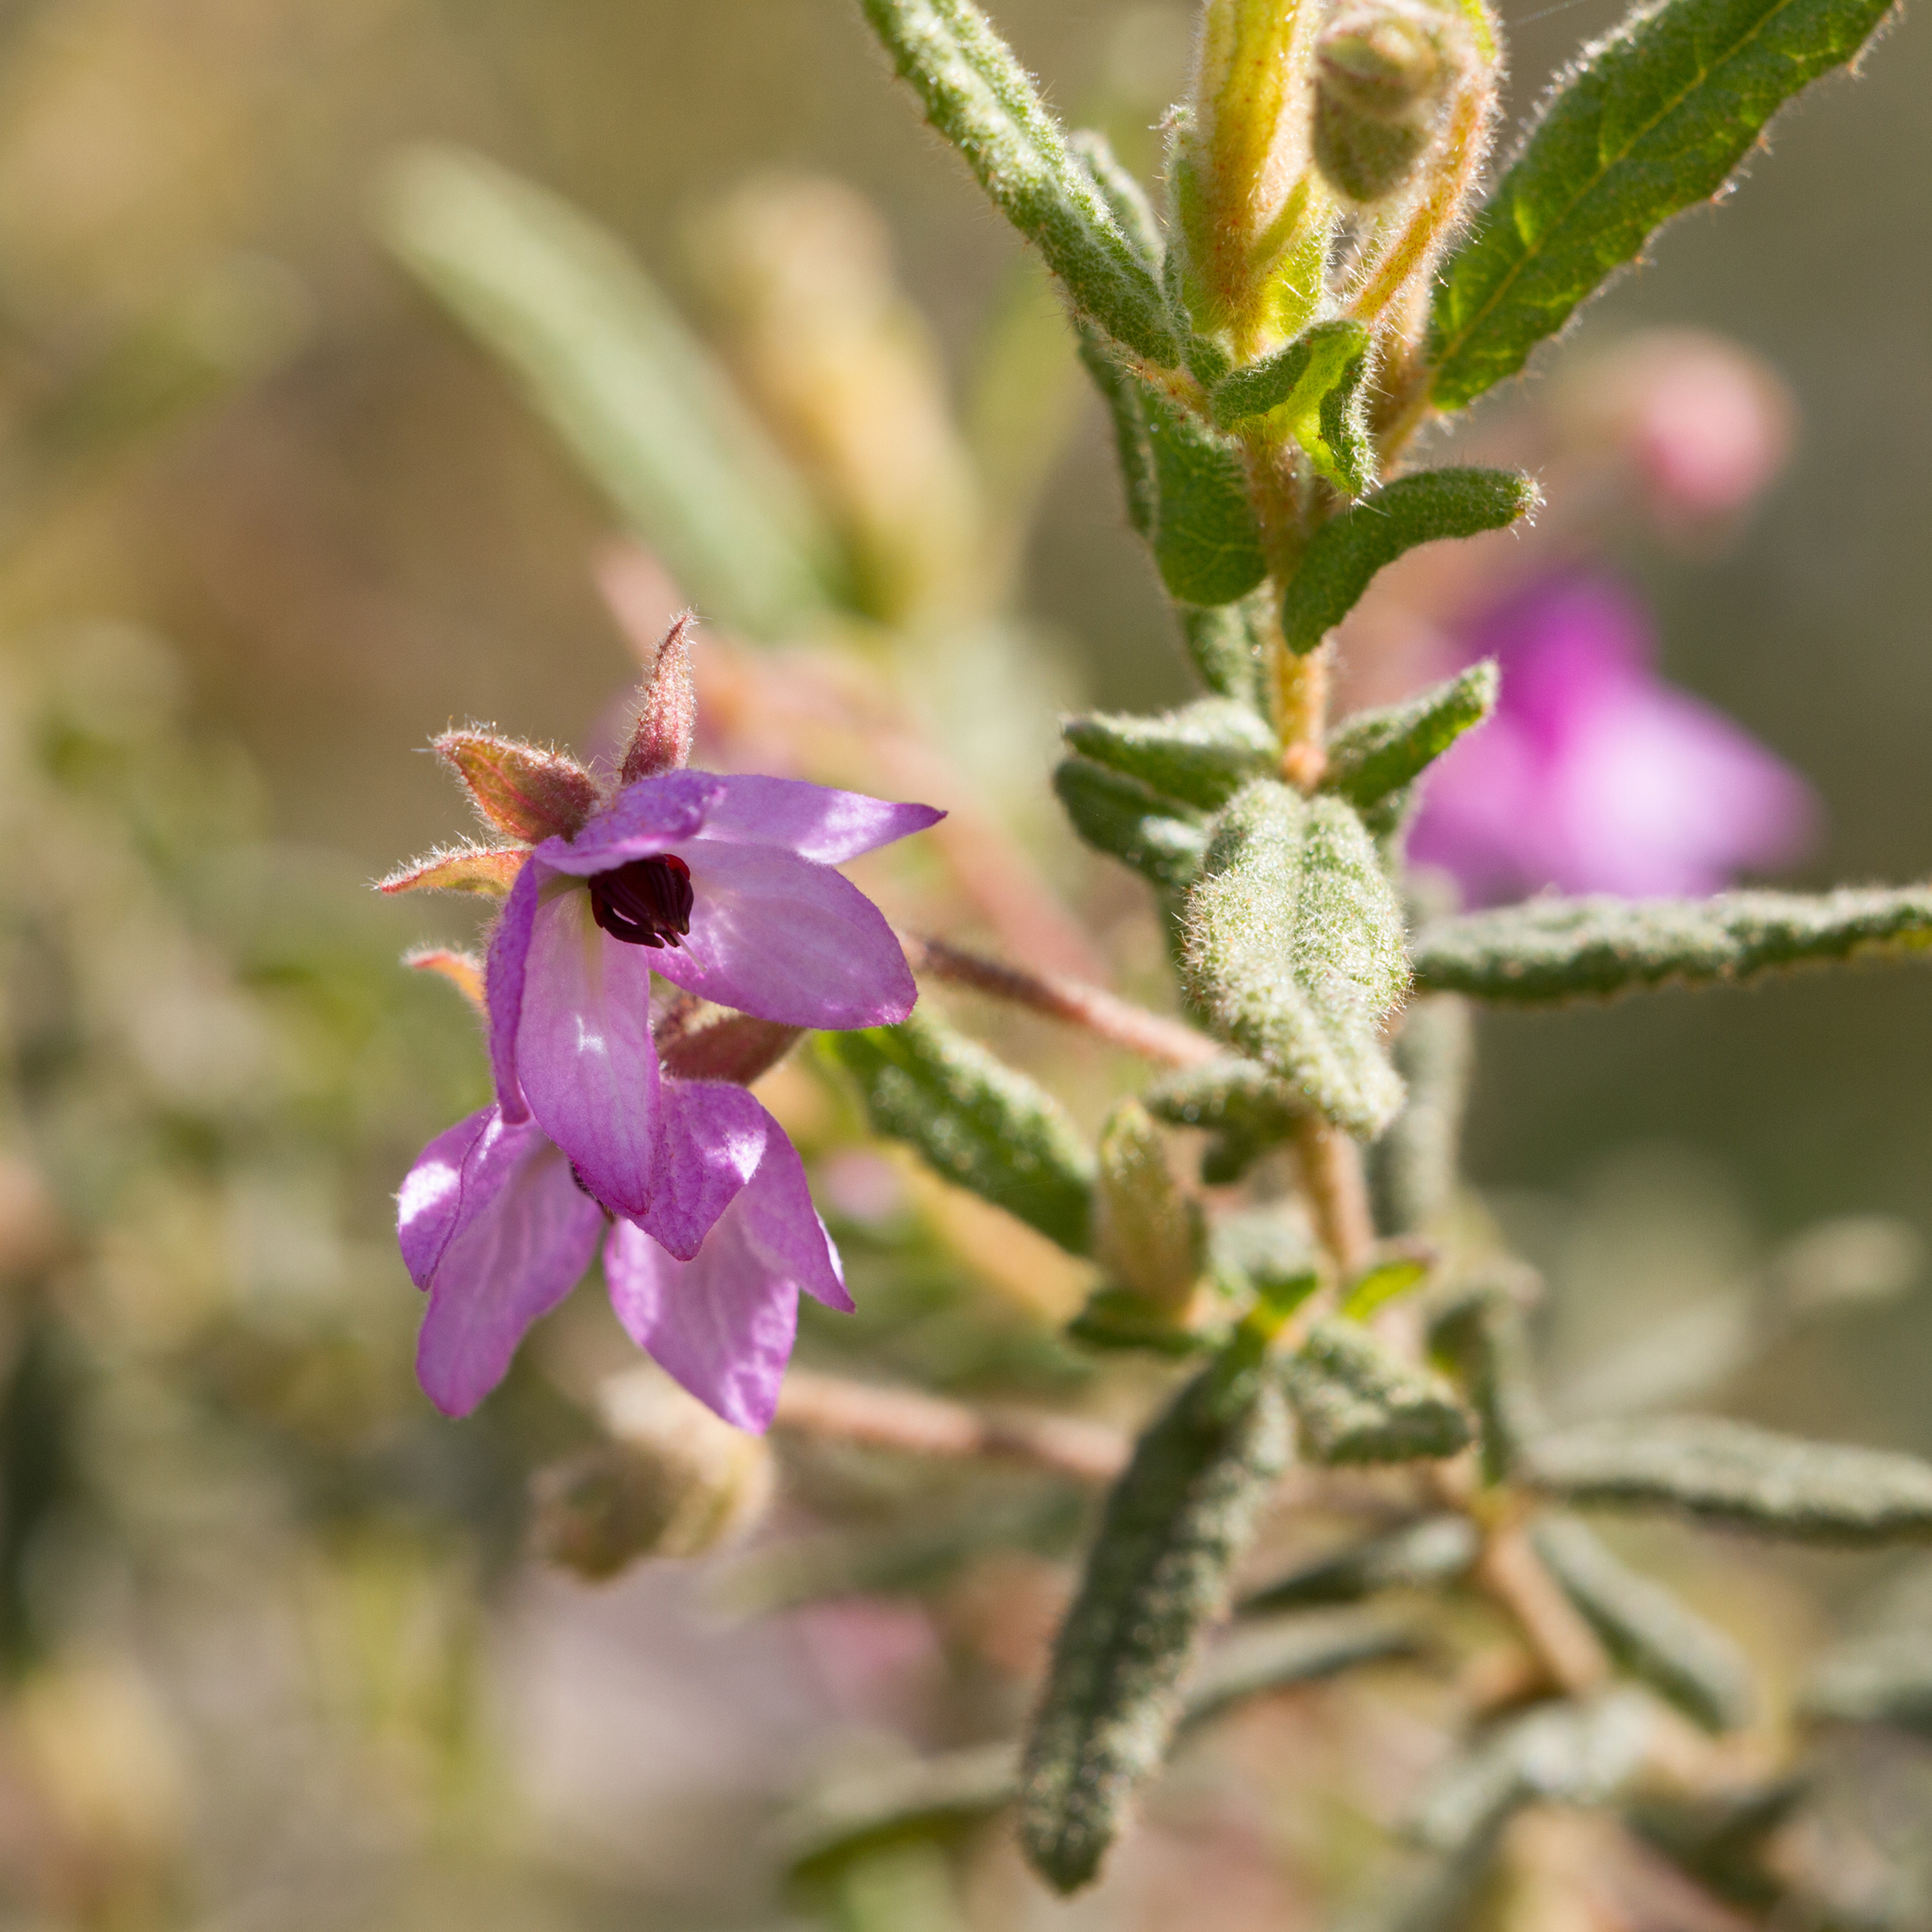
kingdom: Plantae
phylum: Tracheophyta
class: Magnoliopsida
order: Malvales
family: Malvaceae
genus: Thomasia
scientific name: Thomasia petalocalyx
